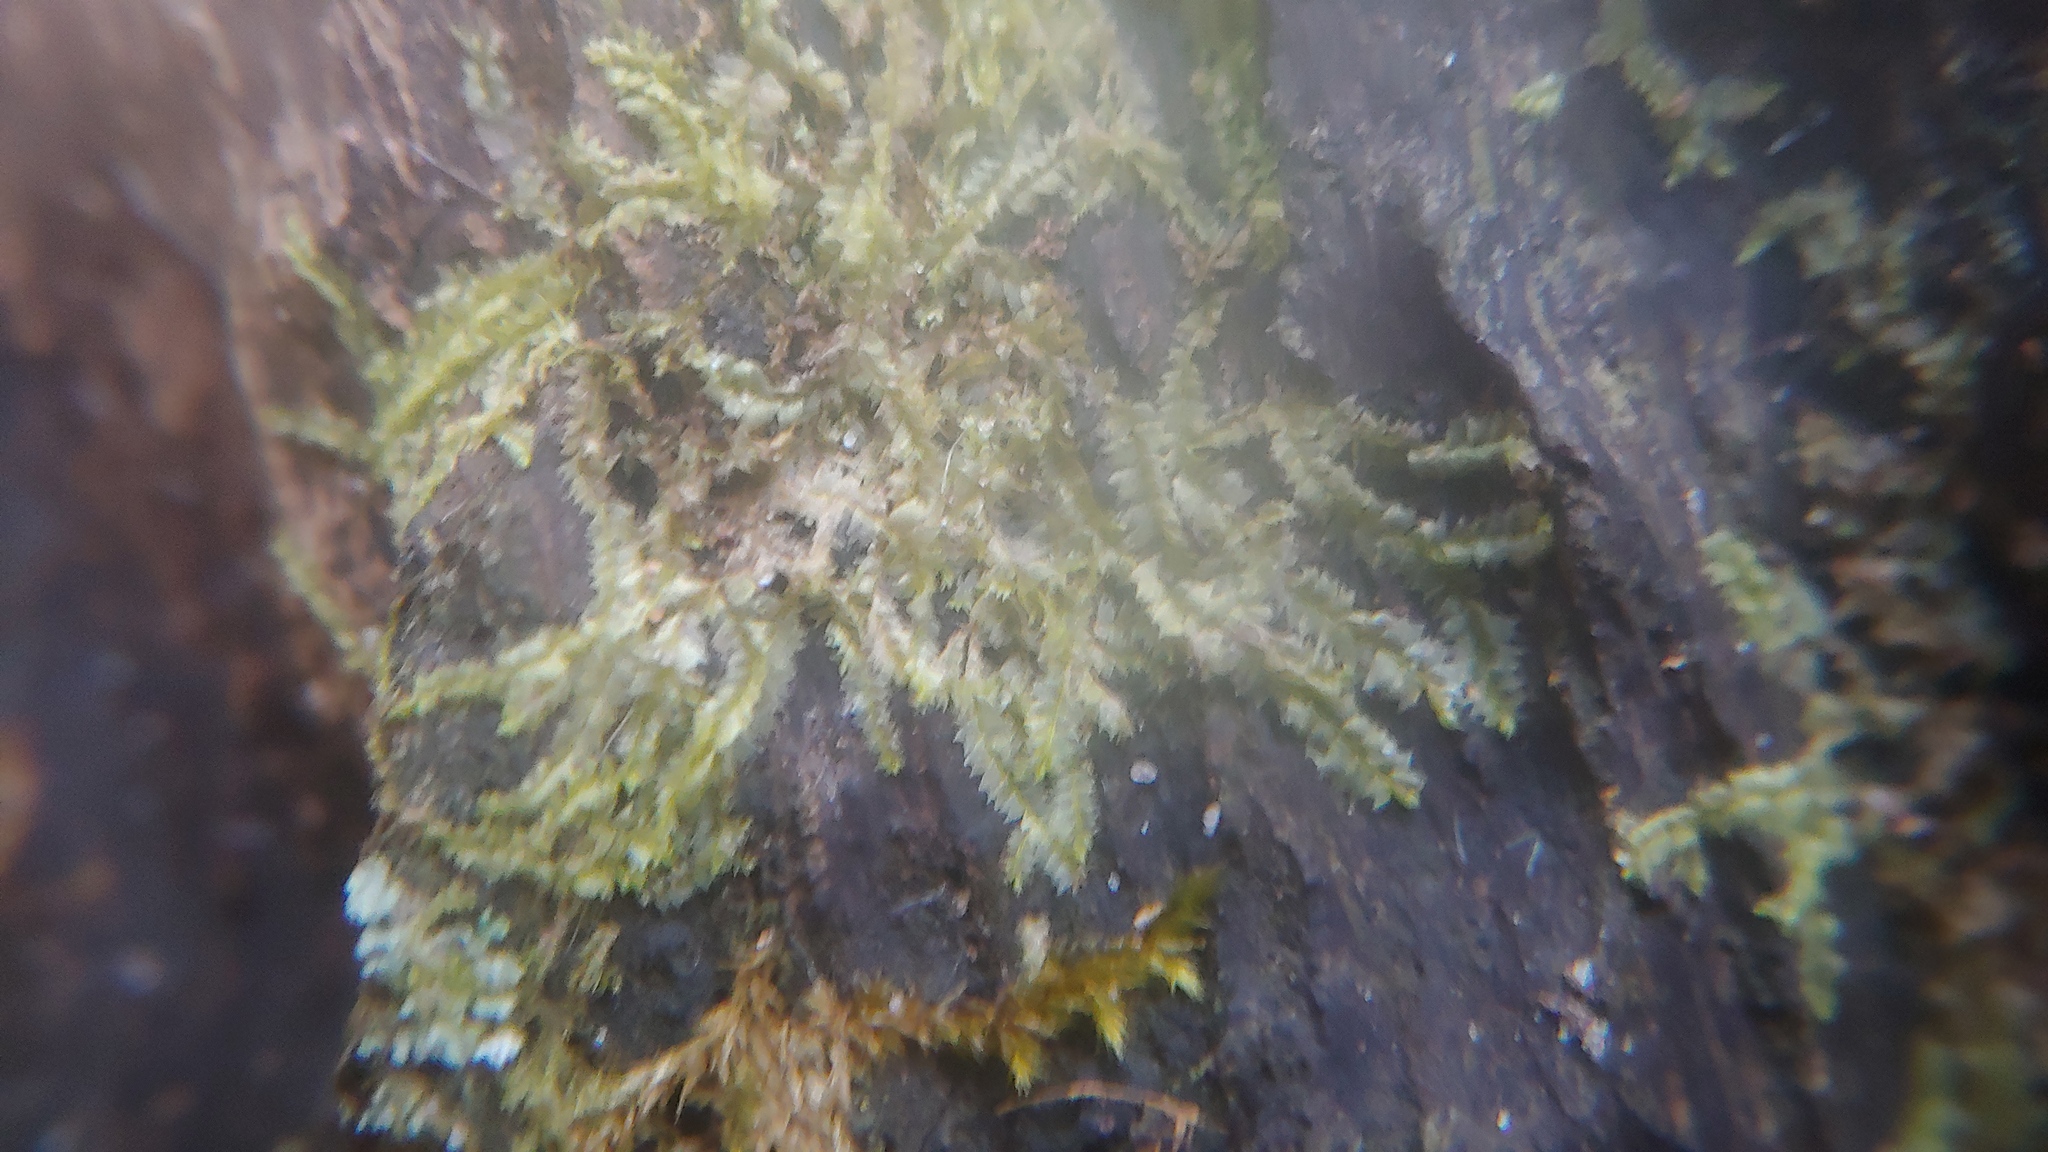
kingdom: Plantae
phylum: Marchantiophyta
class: Jungermanniopsida
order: Jungermanniales
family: Lophocoleaceae
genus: Lophocolea
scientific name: Lophocolea bidentata
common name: Bifid crestwort
